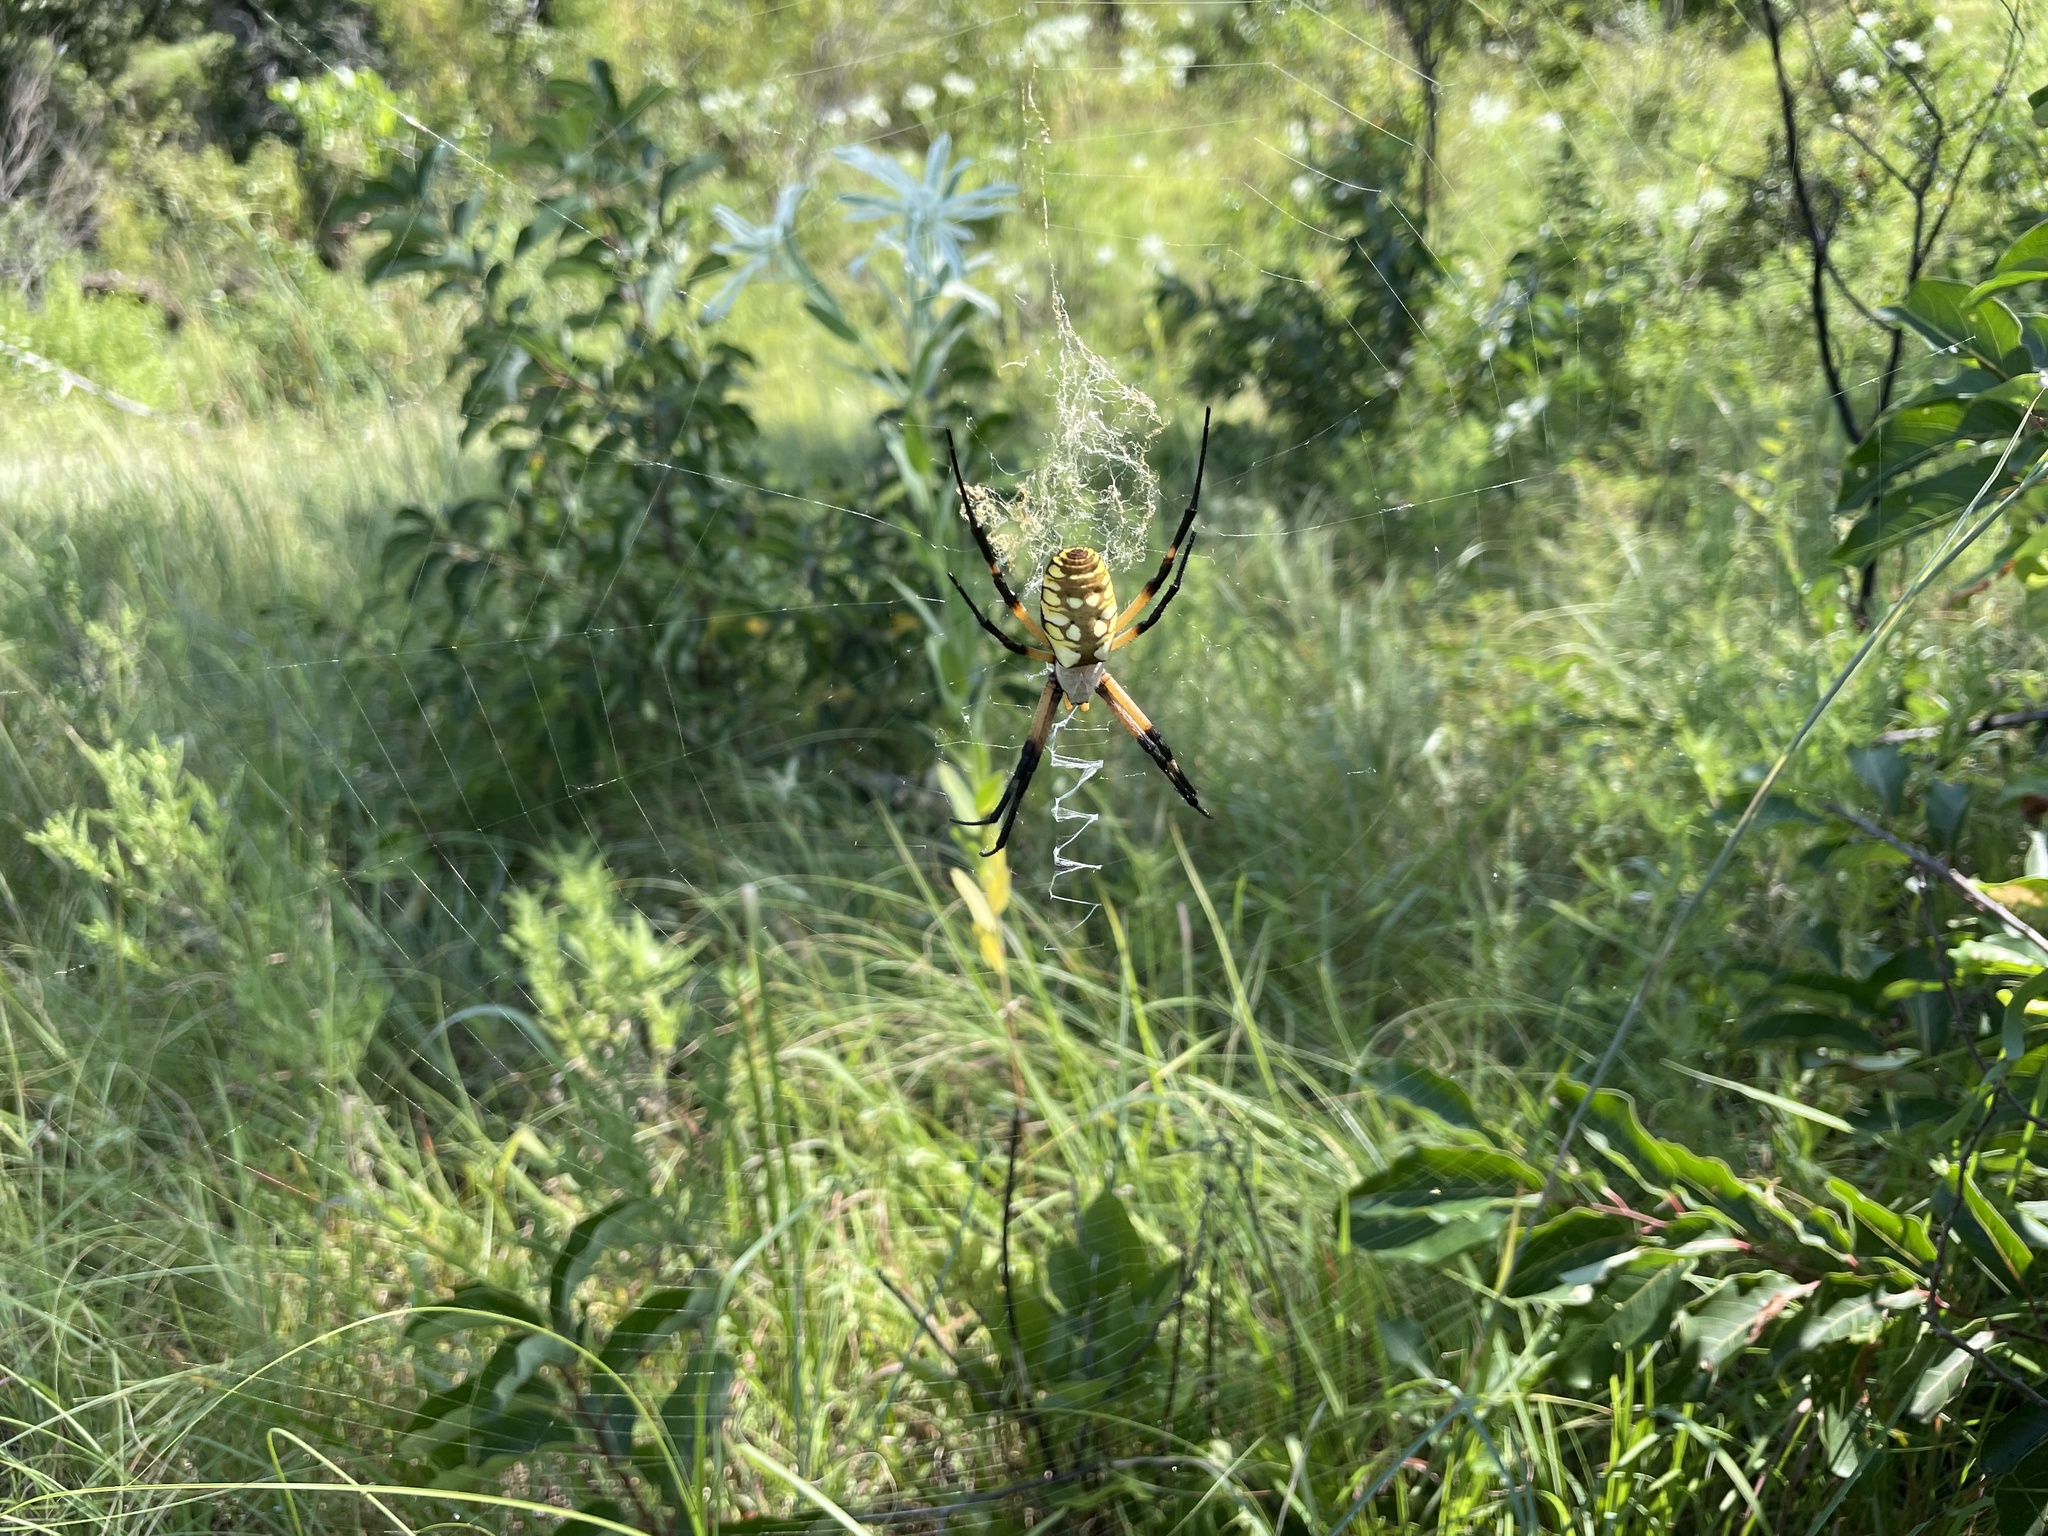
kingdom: Animalia
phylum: Arthropoda
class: Arachnida
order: Araneae
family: Araneidae
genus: Argiope
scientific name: Argiope aurantia
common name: Orb weavers
